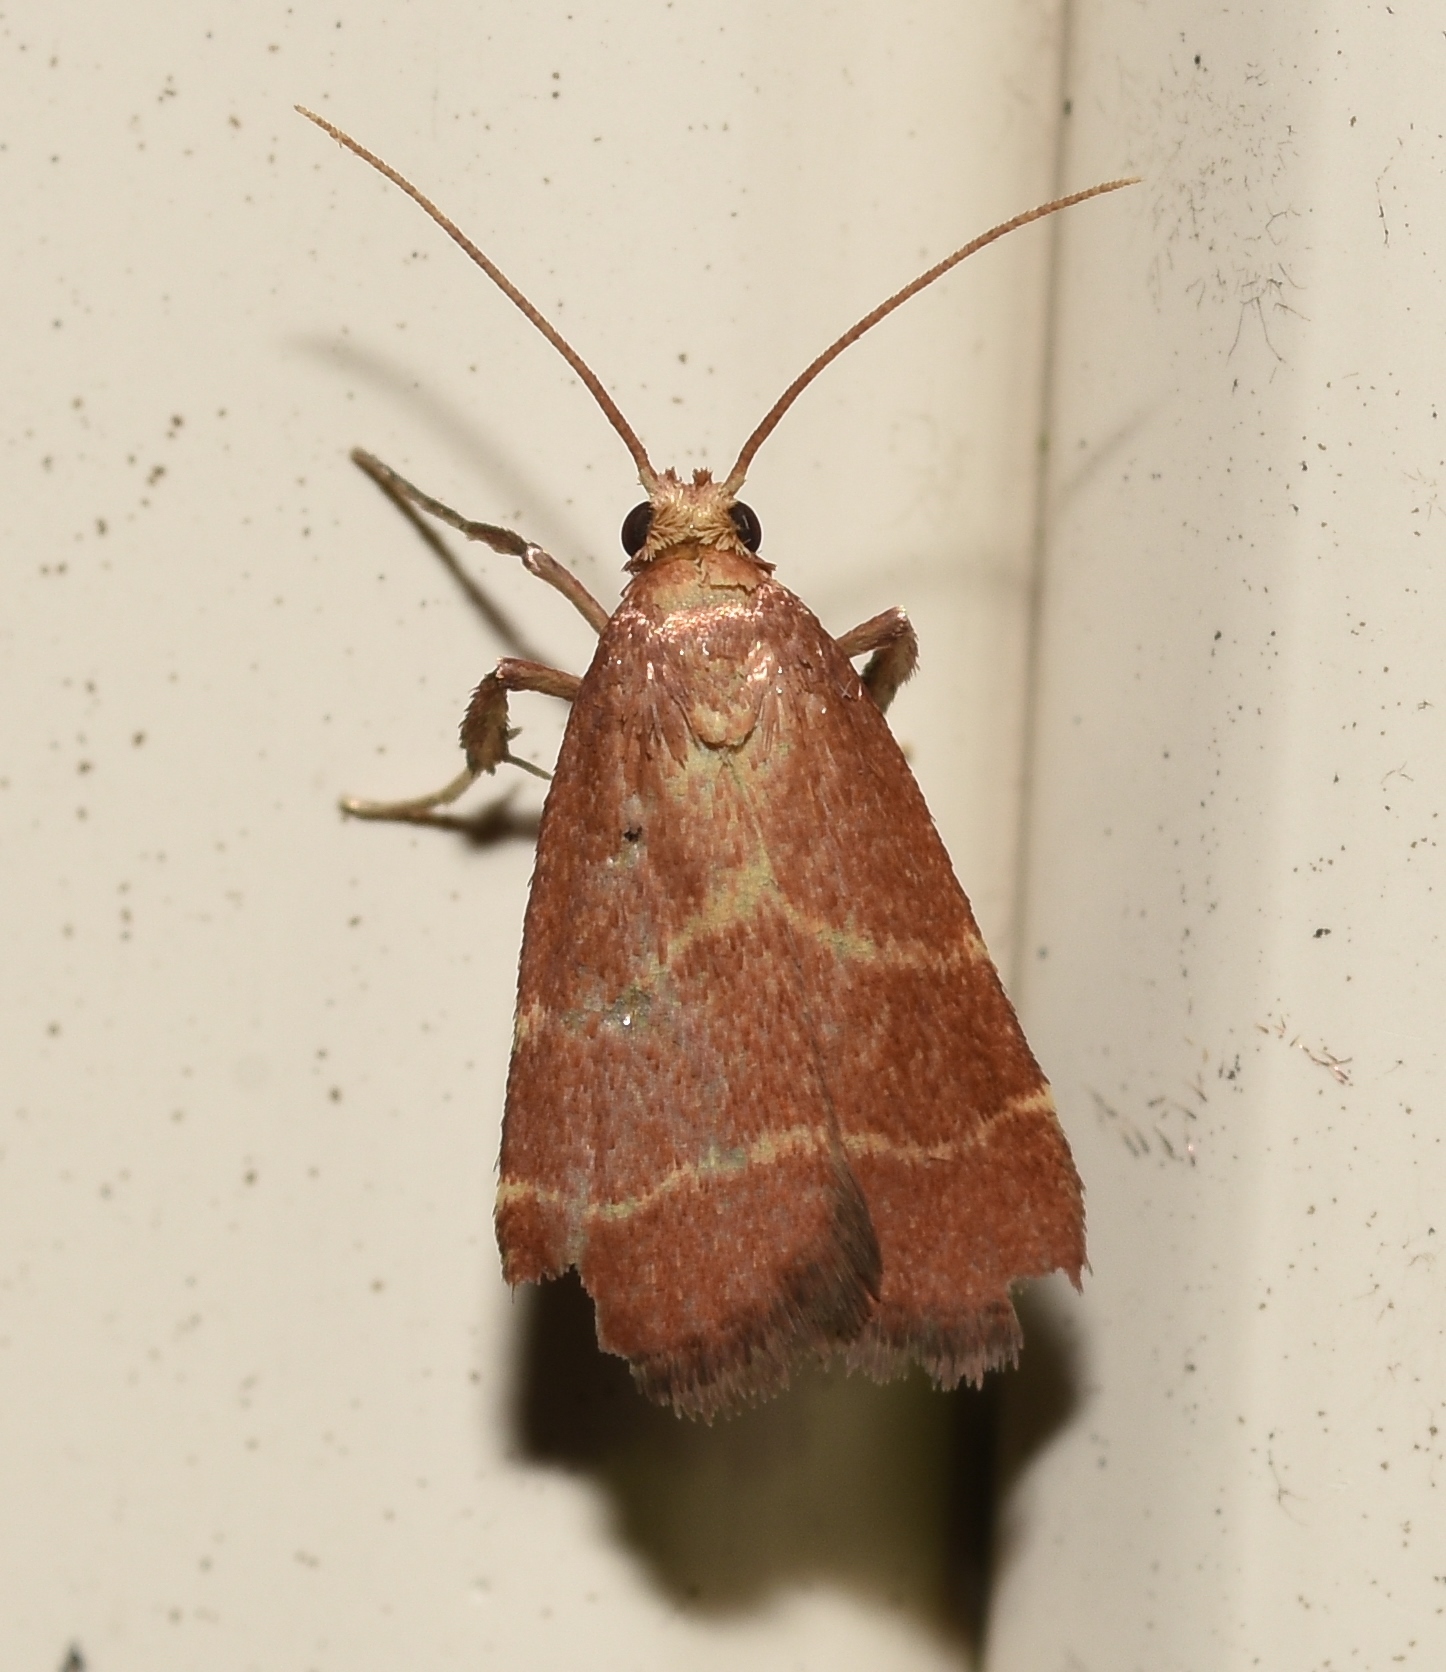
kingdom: Animalia
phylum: Arthropoda
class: Insecta
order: Lepidoptera
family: Pyralidae
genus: Arta
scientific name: Arta statalis
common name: Posturing arta moth
